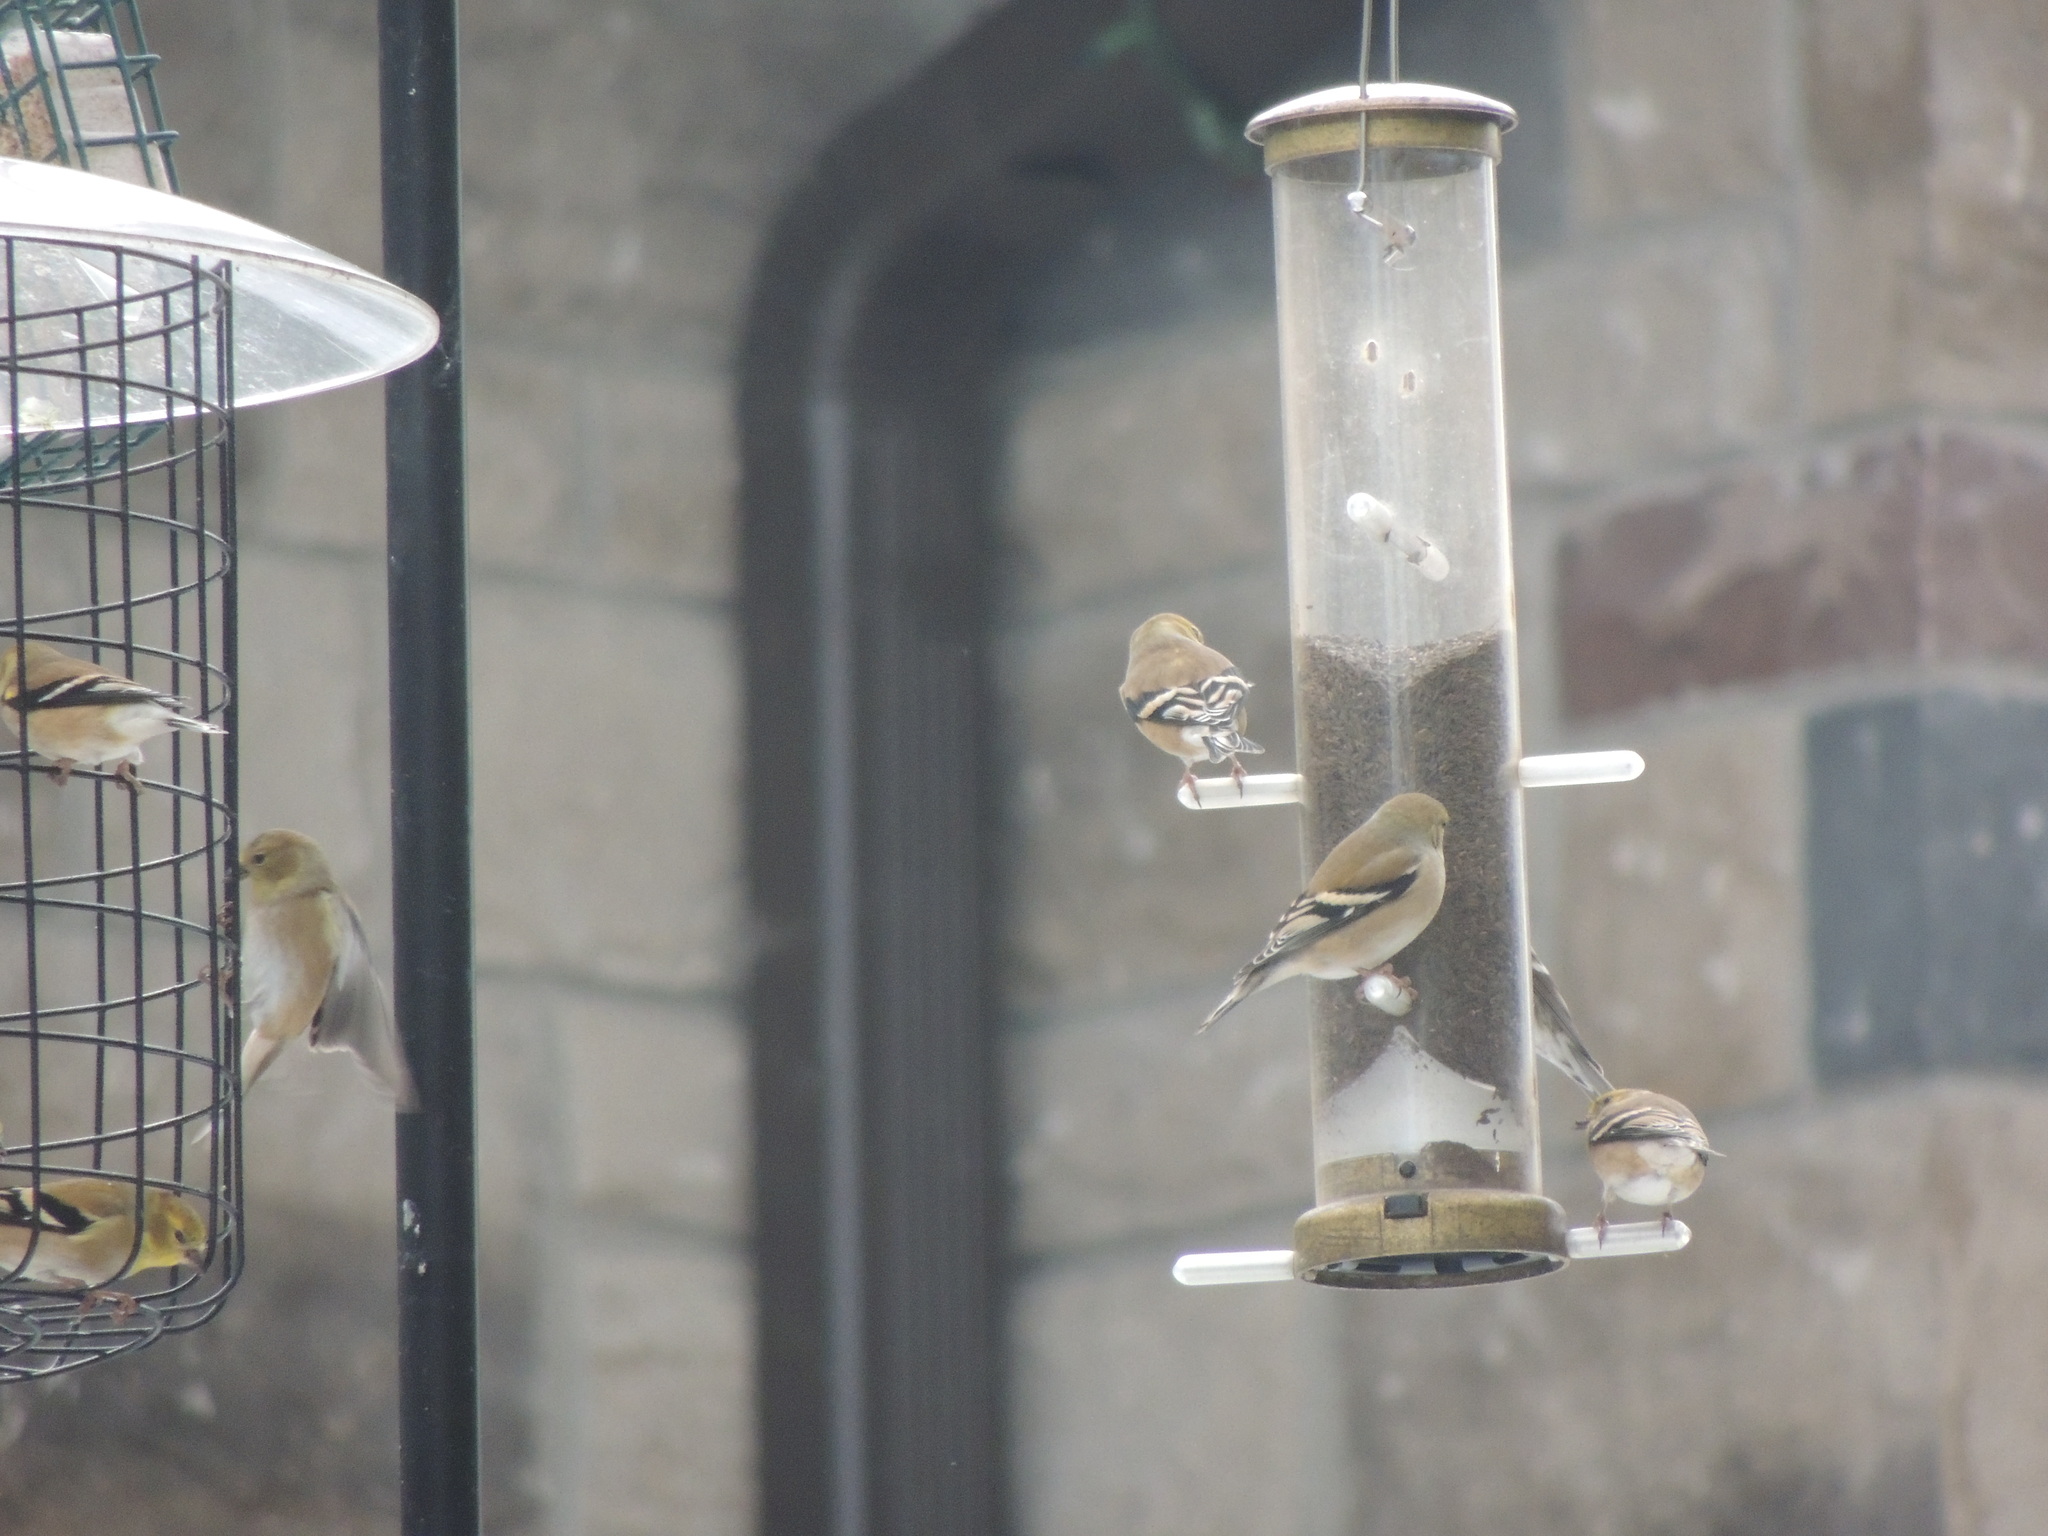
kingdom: Animalia
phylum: Chordata
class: Aves
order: Passeriformes
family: Fringillidae
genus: Spinus
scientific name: Spinus tristis
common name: American goldfinch
